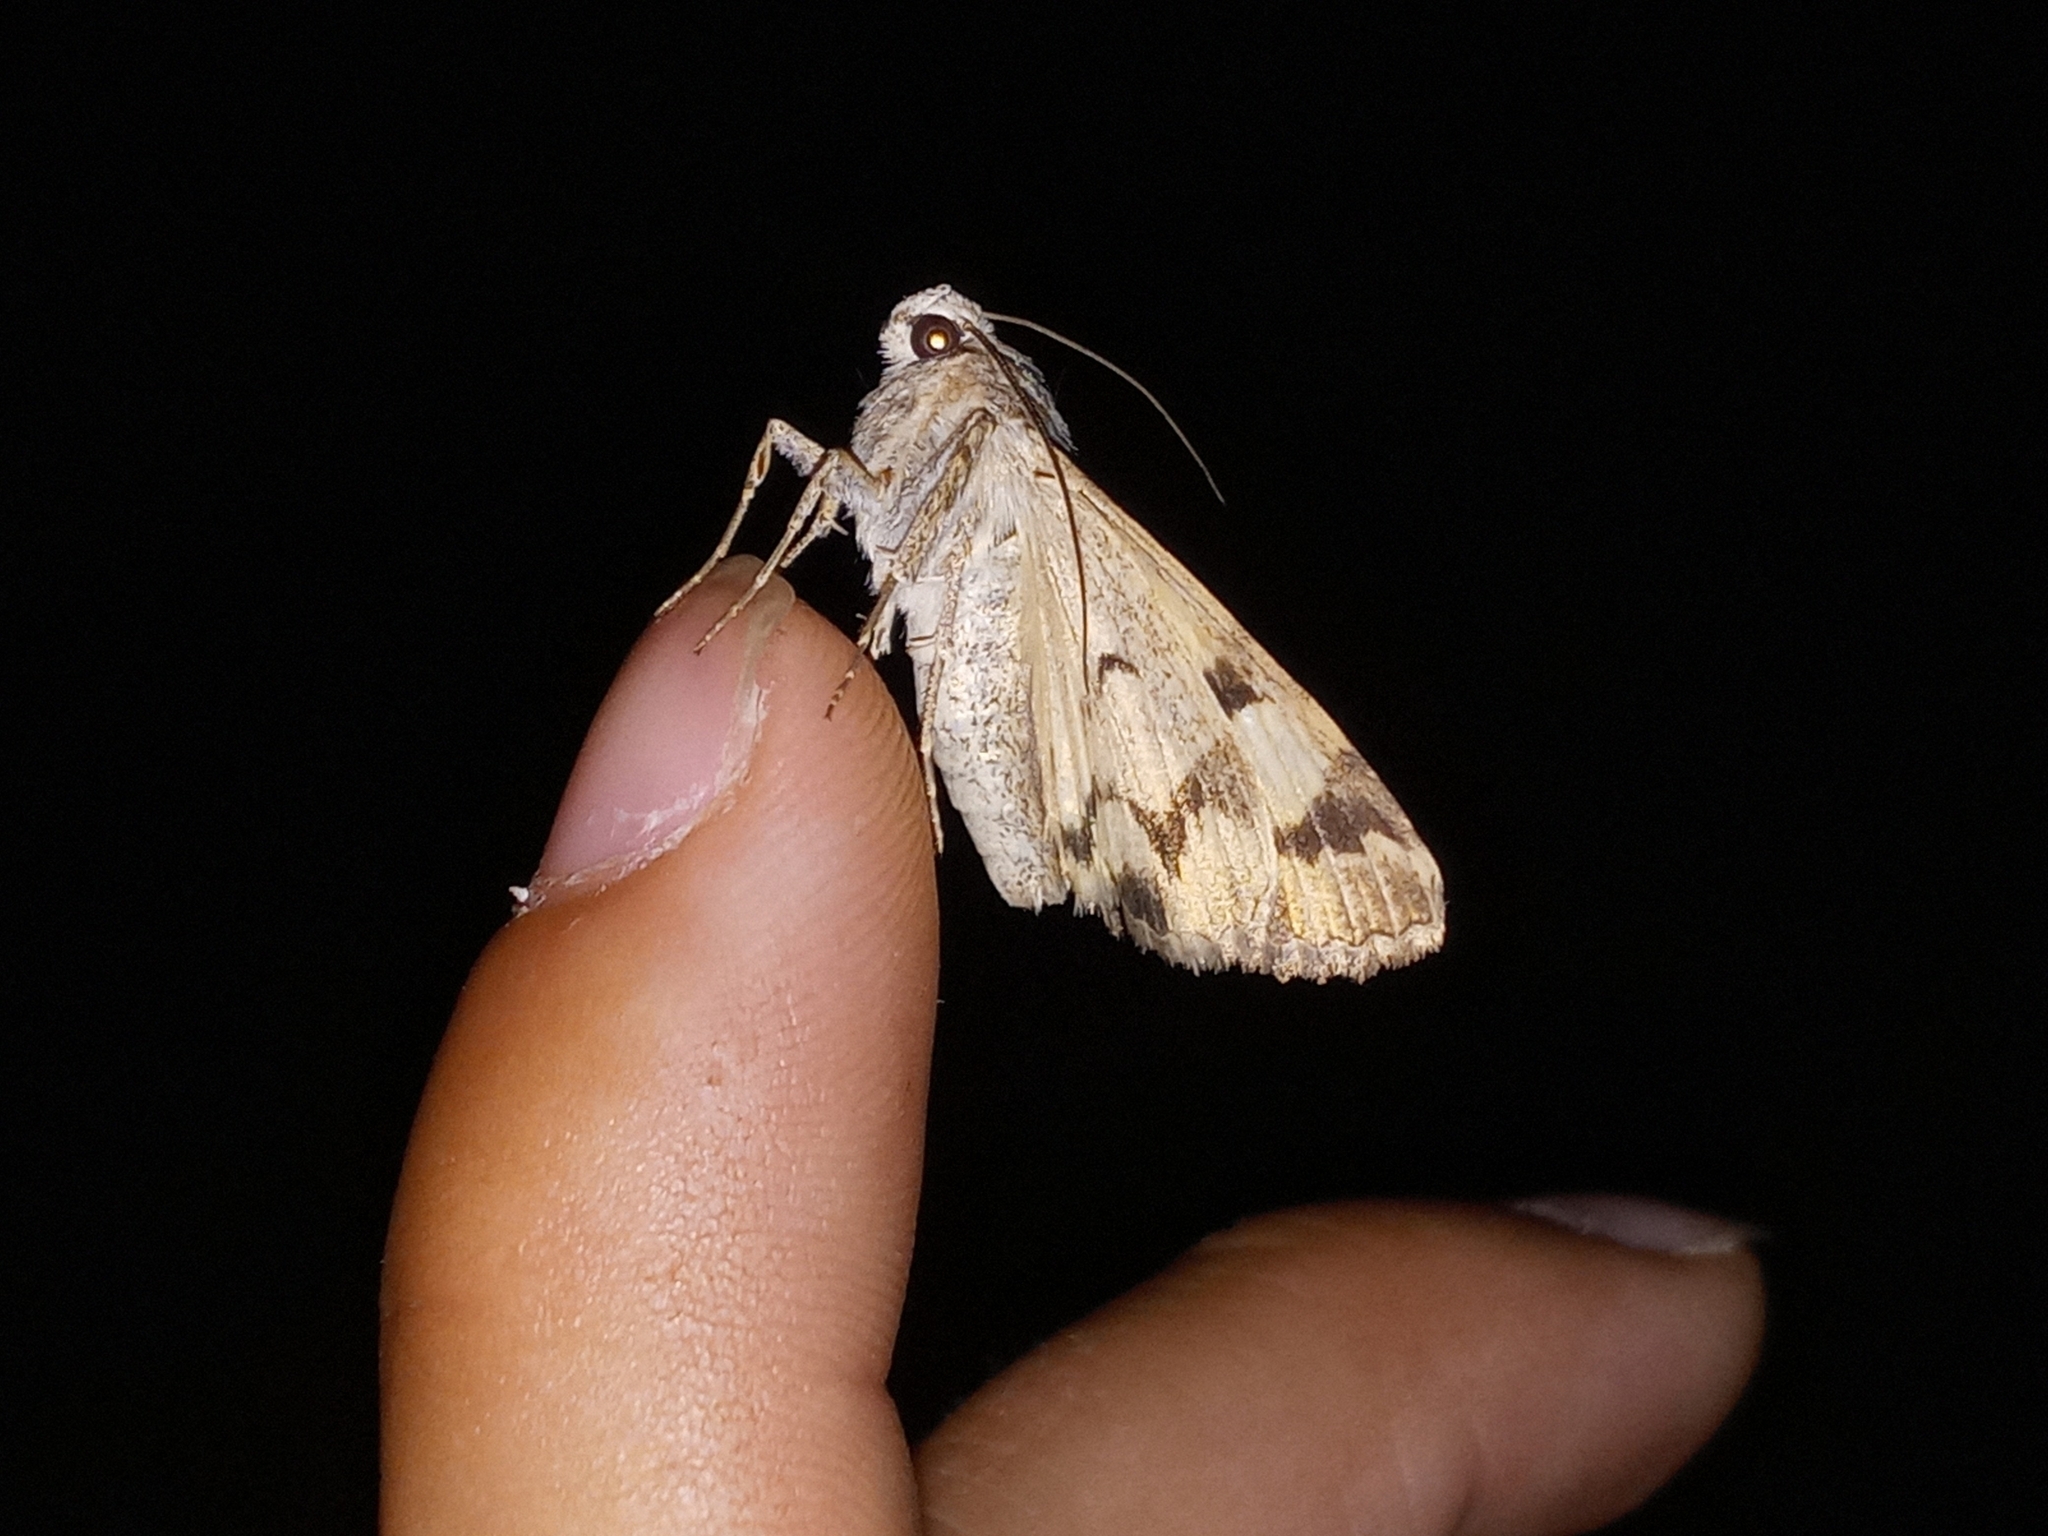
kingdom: Animalia
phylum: Arthropoda
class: Insecta
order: Lepidoptera
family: Erebidae
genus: Drasteria
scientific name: Drasteria divergens
